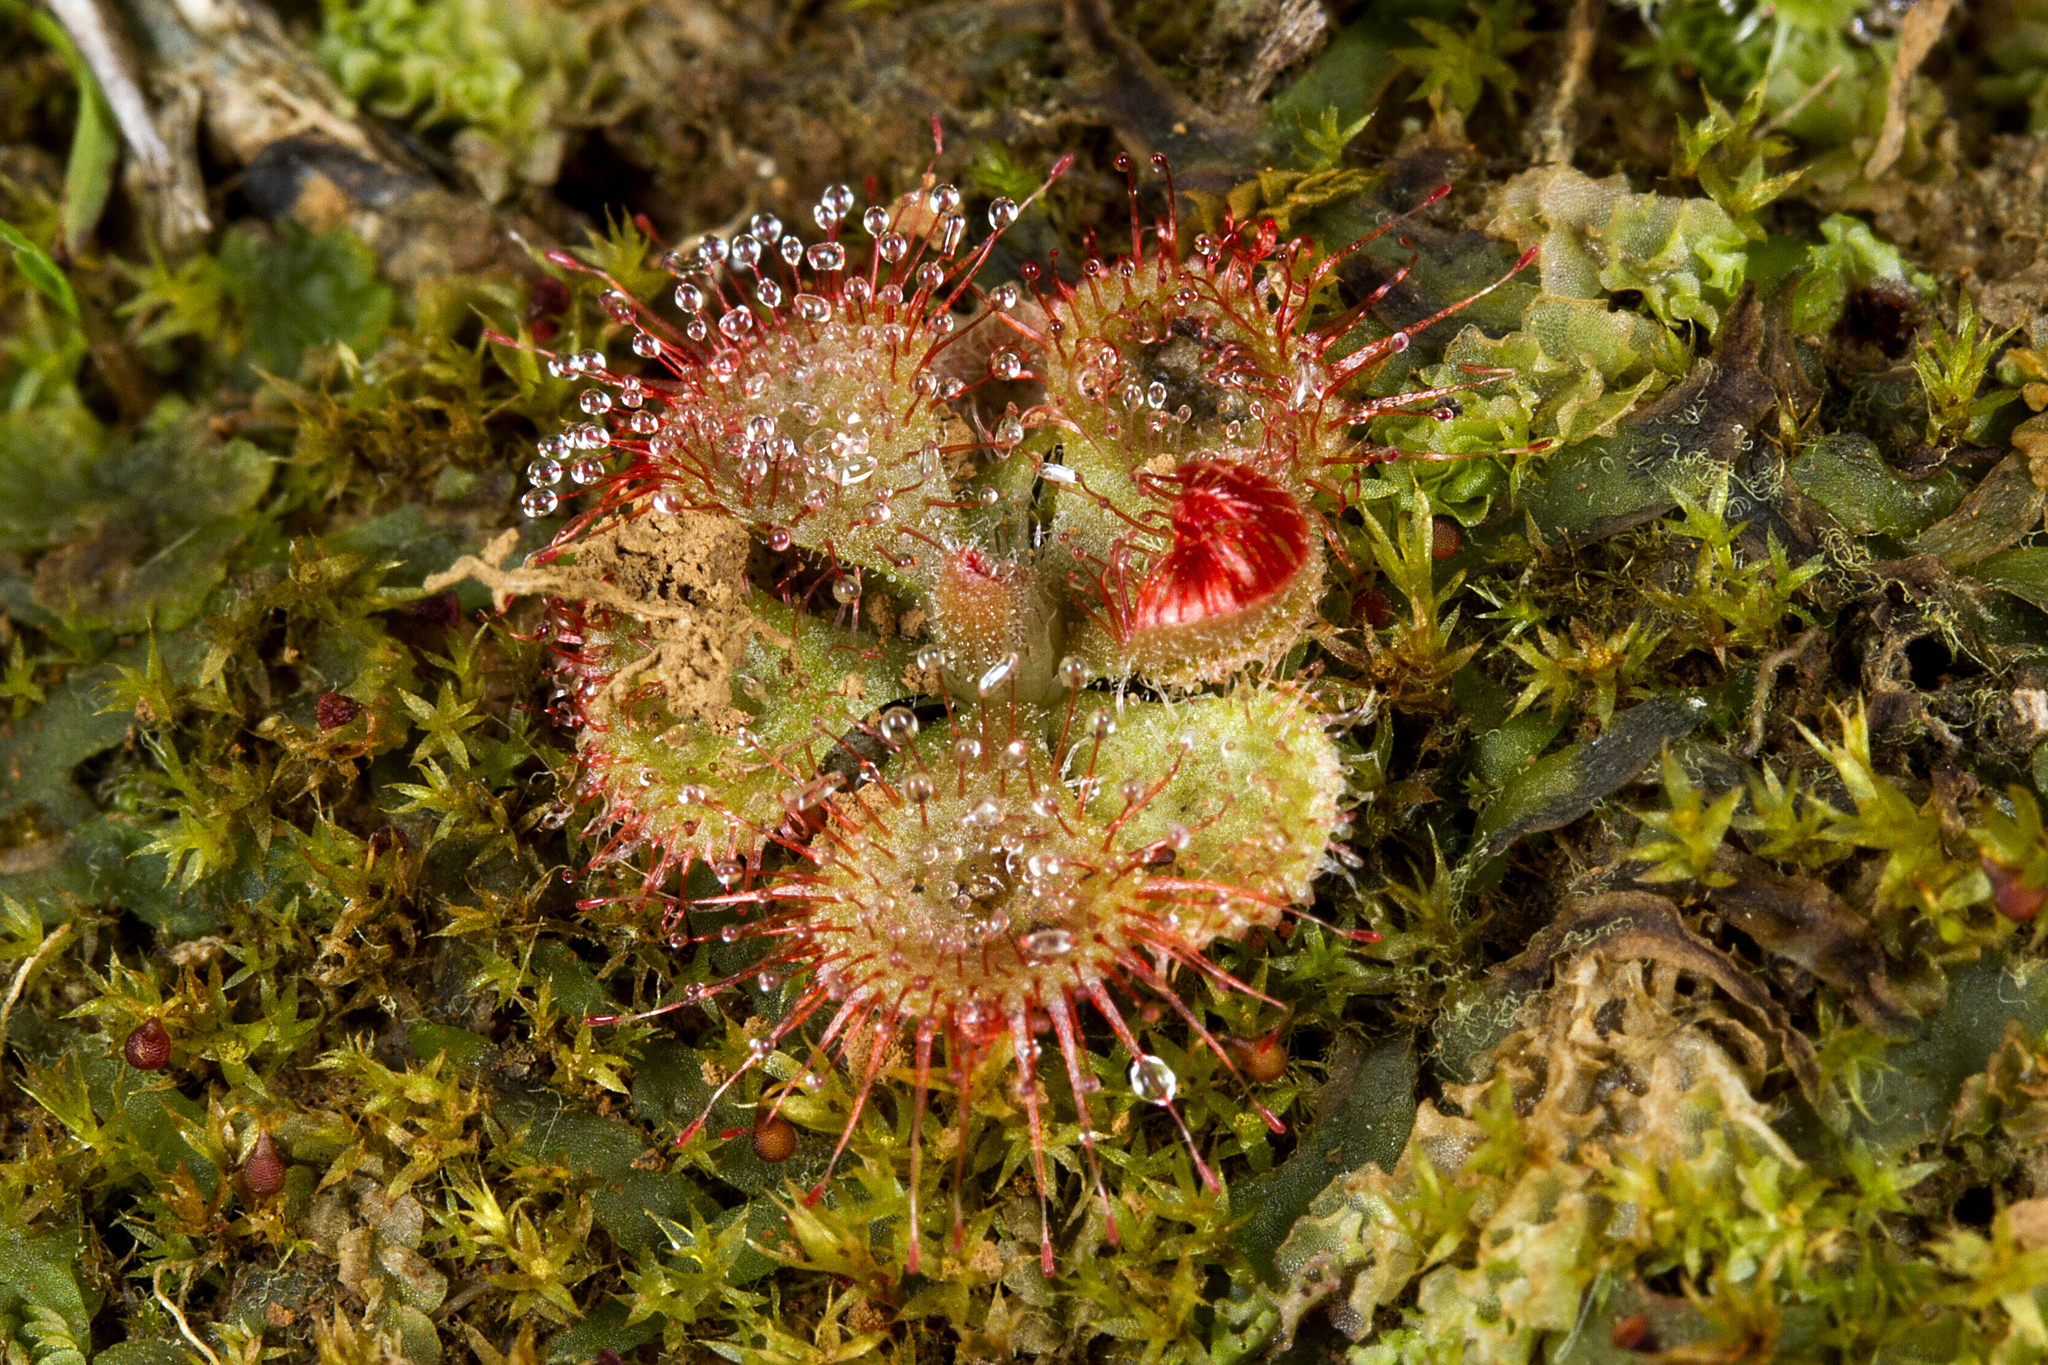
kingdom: Plantae
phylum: Tracheophyta
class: Magnoliopsida
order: Caryophyllales
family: Droseraceae
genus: Drosera
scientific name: Drosera spatulata
